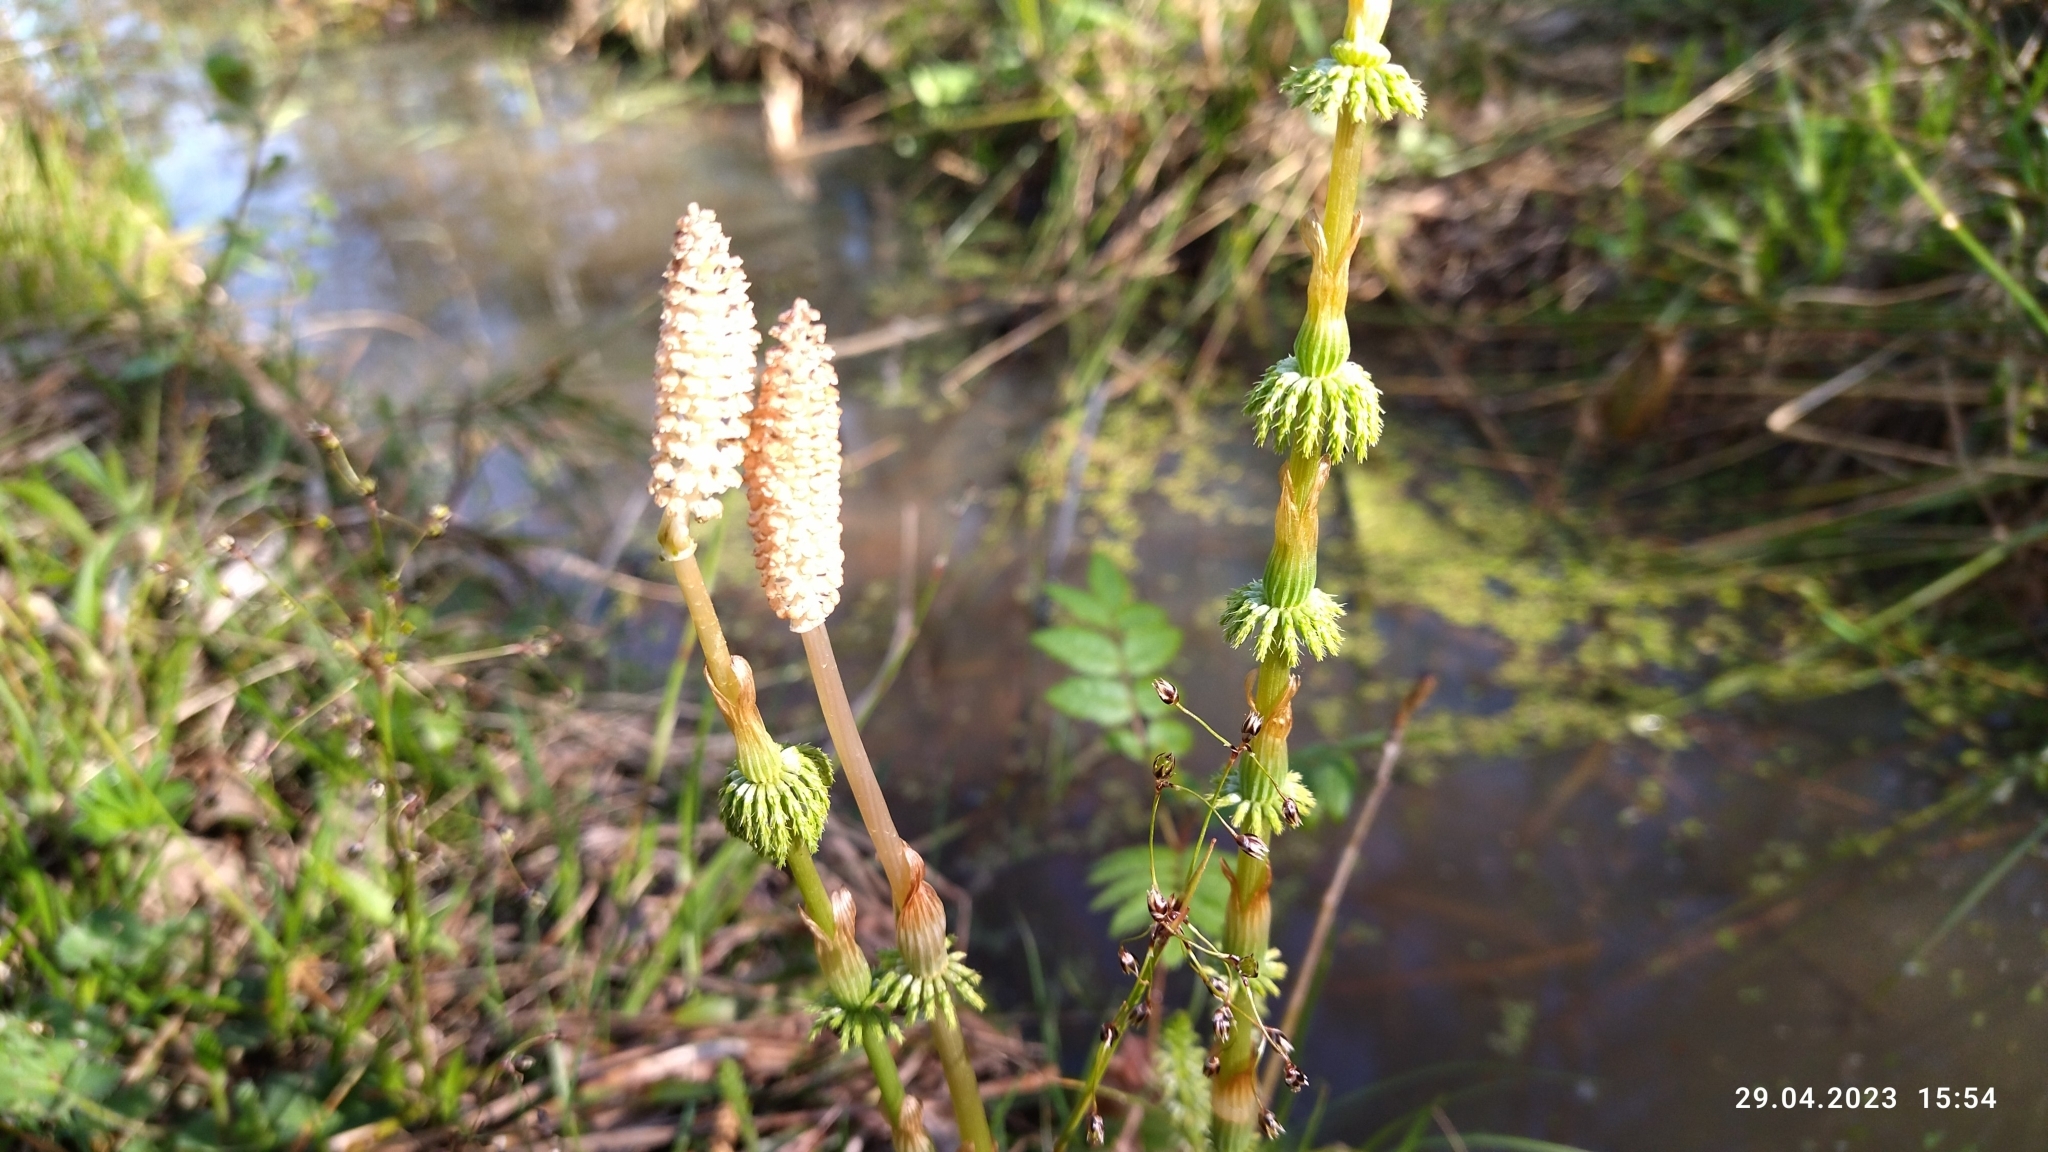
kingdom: Plantae
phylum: Tracheophyta
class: Polypodiopsida
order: Equisetales
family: Equisetaceae
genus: Equisetum
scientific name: Equisetum sylvaticum
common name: Wood horsetail
